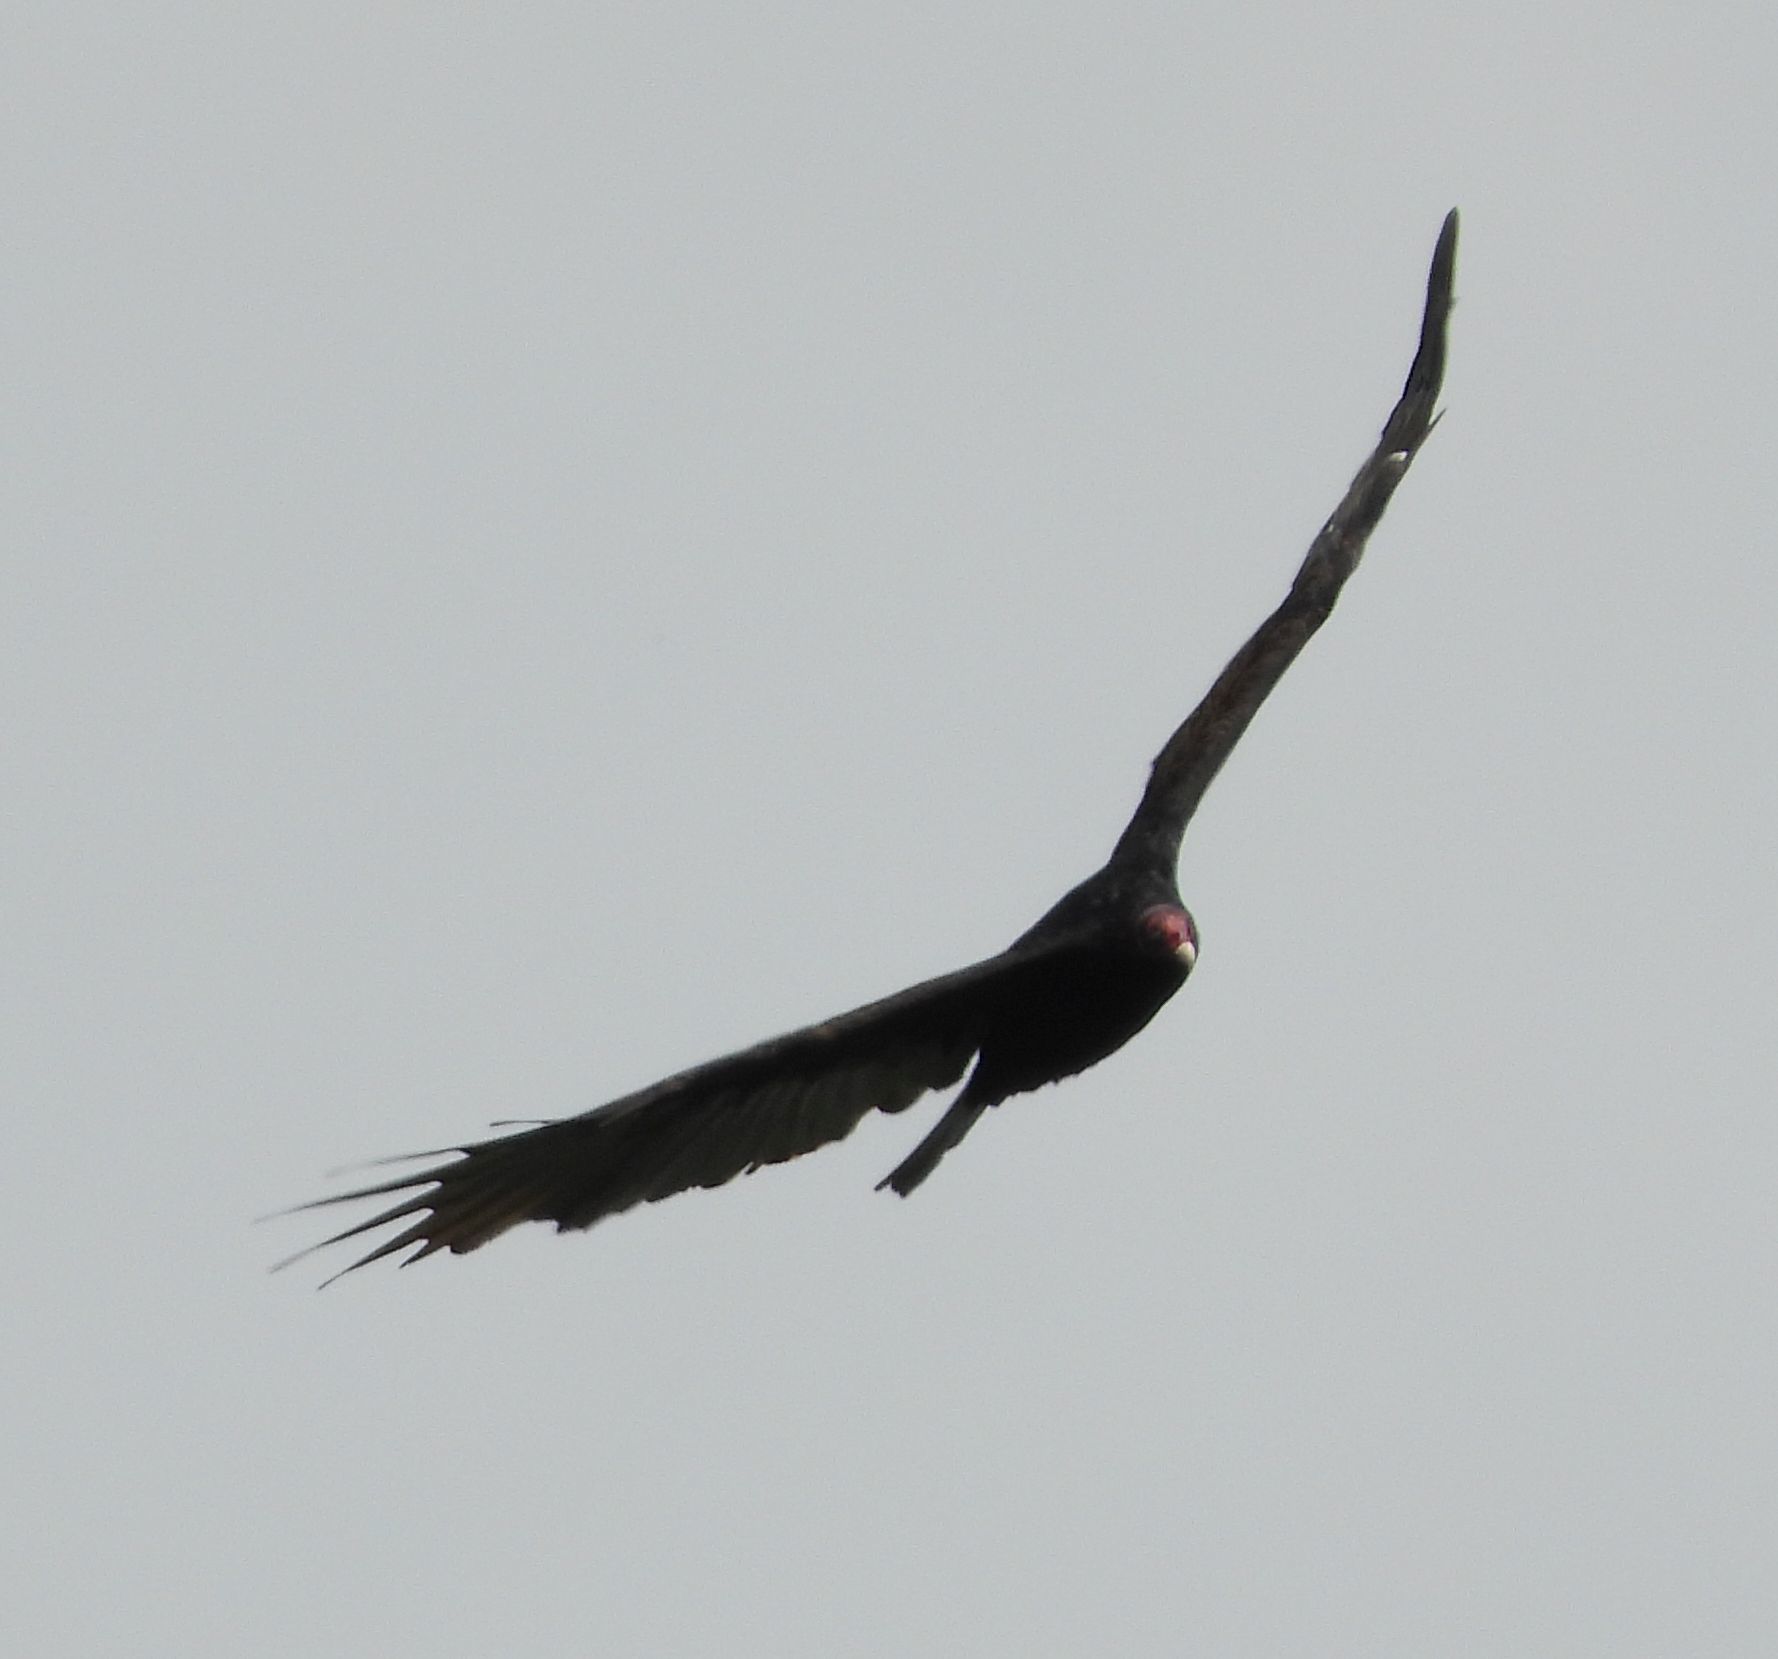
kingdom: Animalia
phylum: Chordata
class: Aves
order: Accipitriformes
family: Cathartidae
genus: Cathartes
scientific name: Cathartes aura
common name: Turkey vulture
